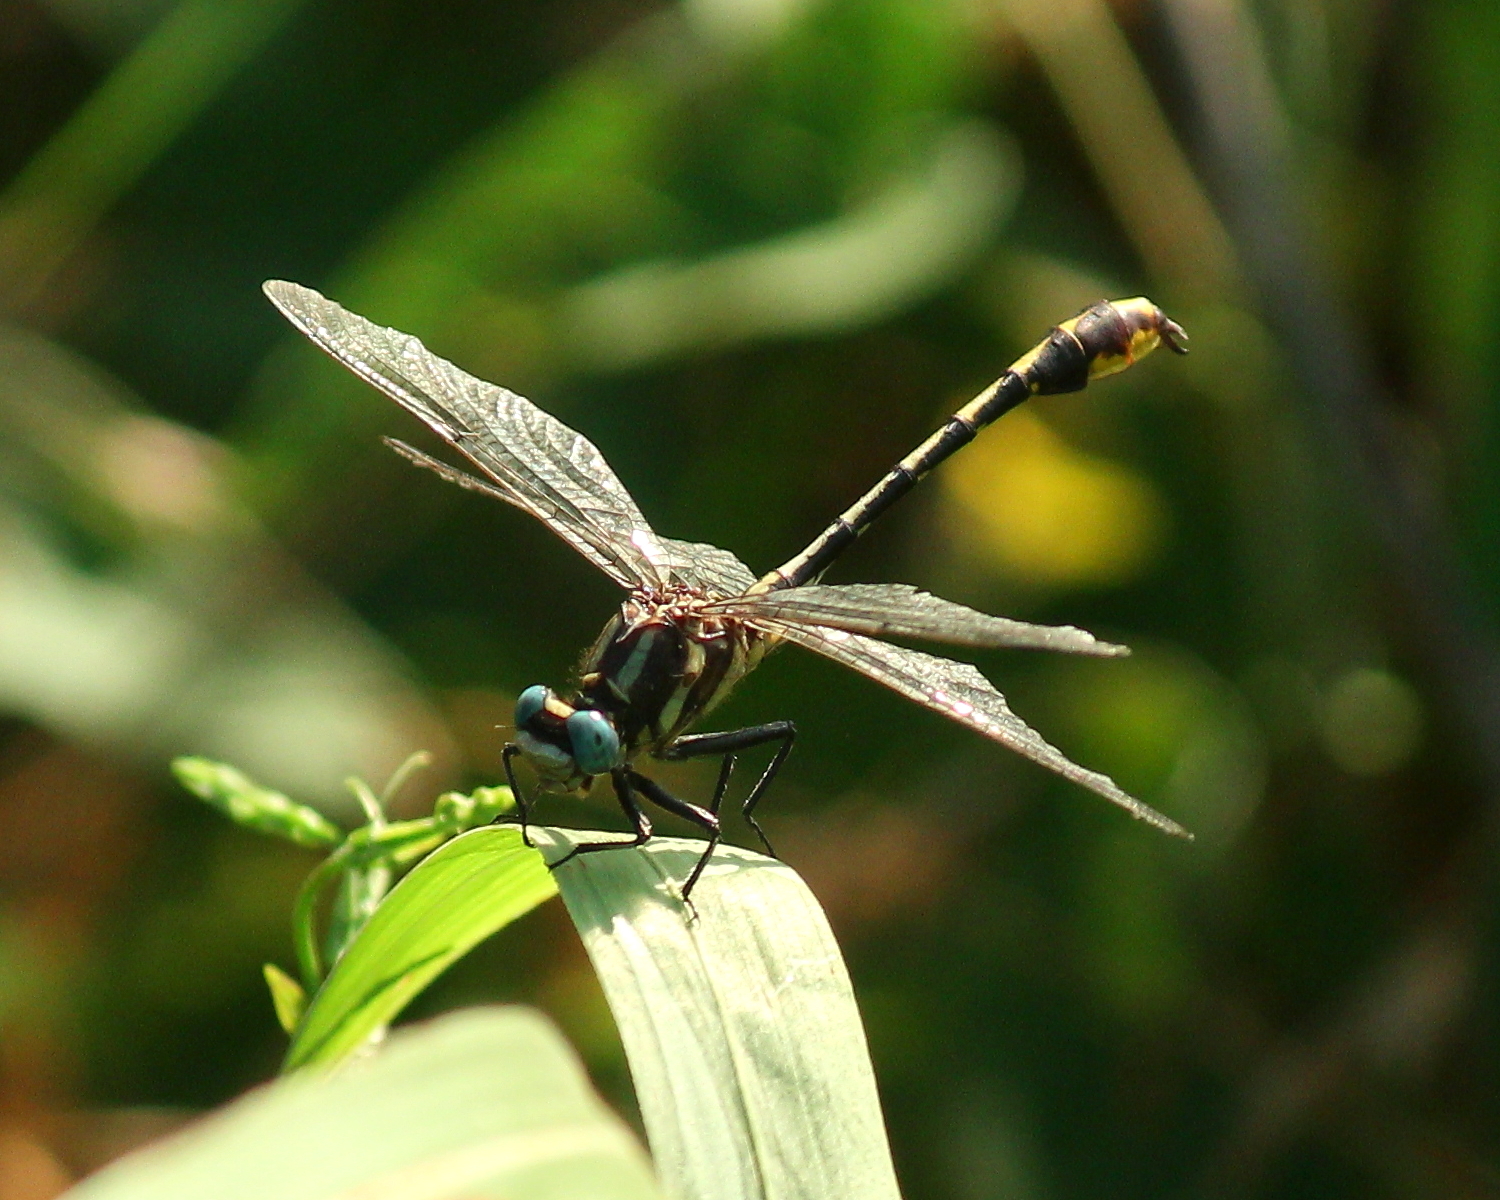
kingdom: Animalia
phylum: Arthropoda
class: Insecta
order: Odonata
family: Gomphidae
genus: Phanogomphus
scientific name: Phanogomphus graslinellus
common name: Pronghorn clubtail
